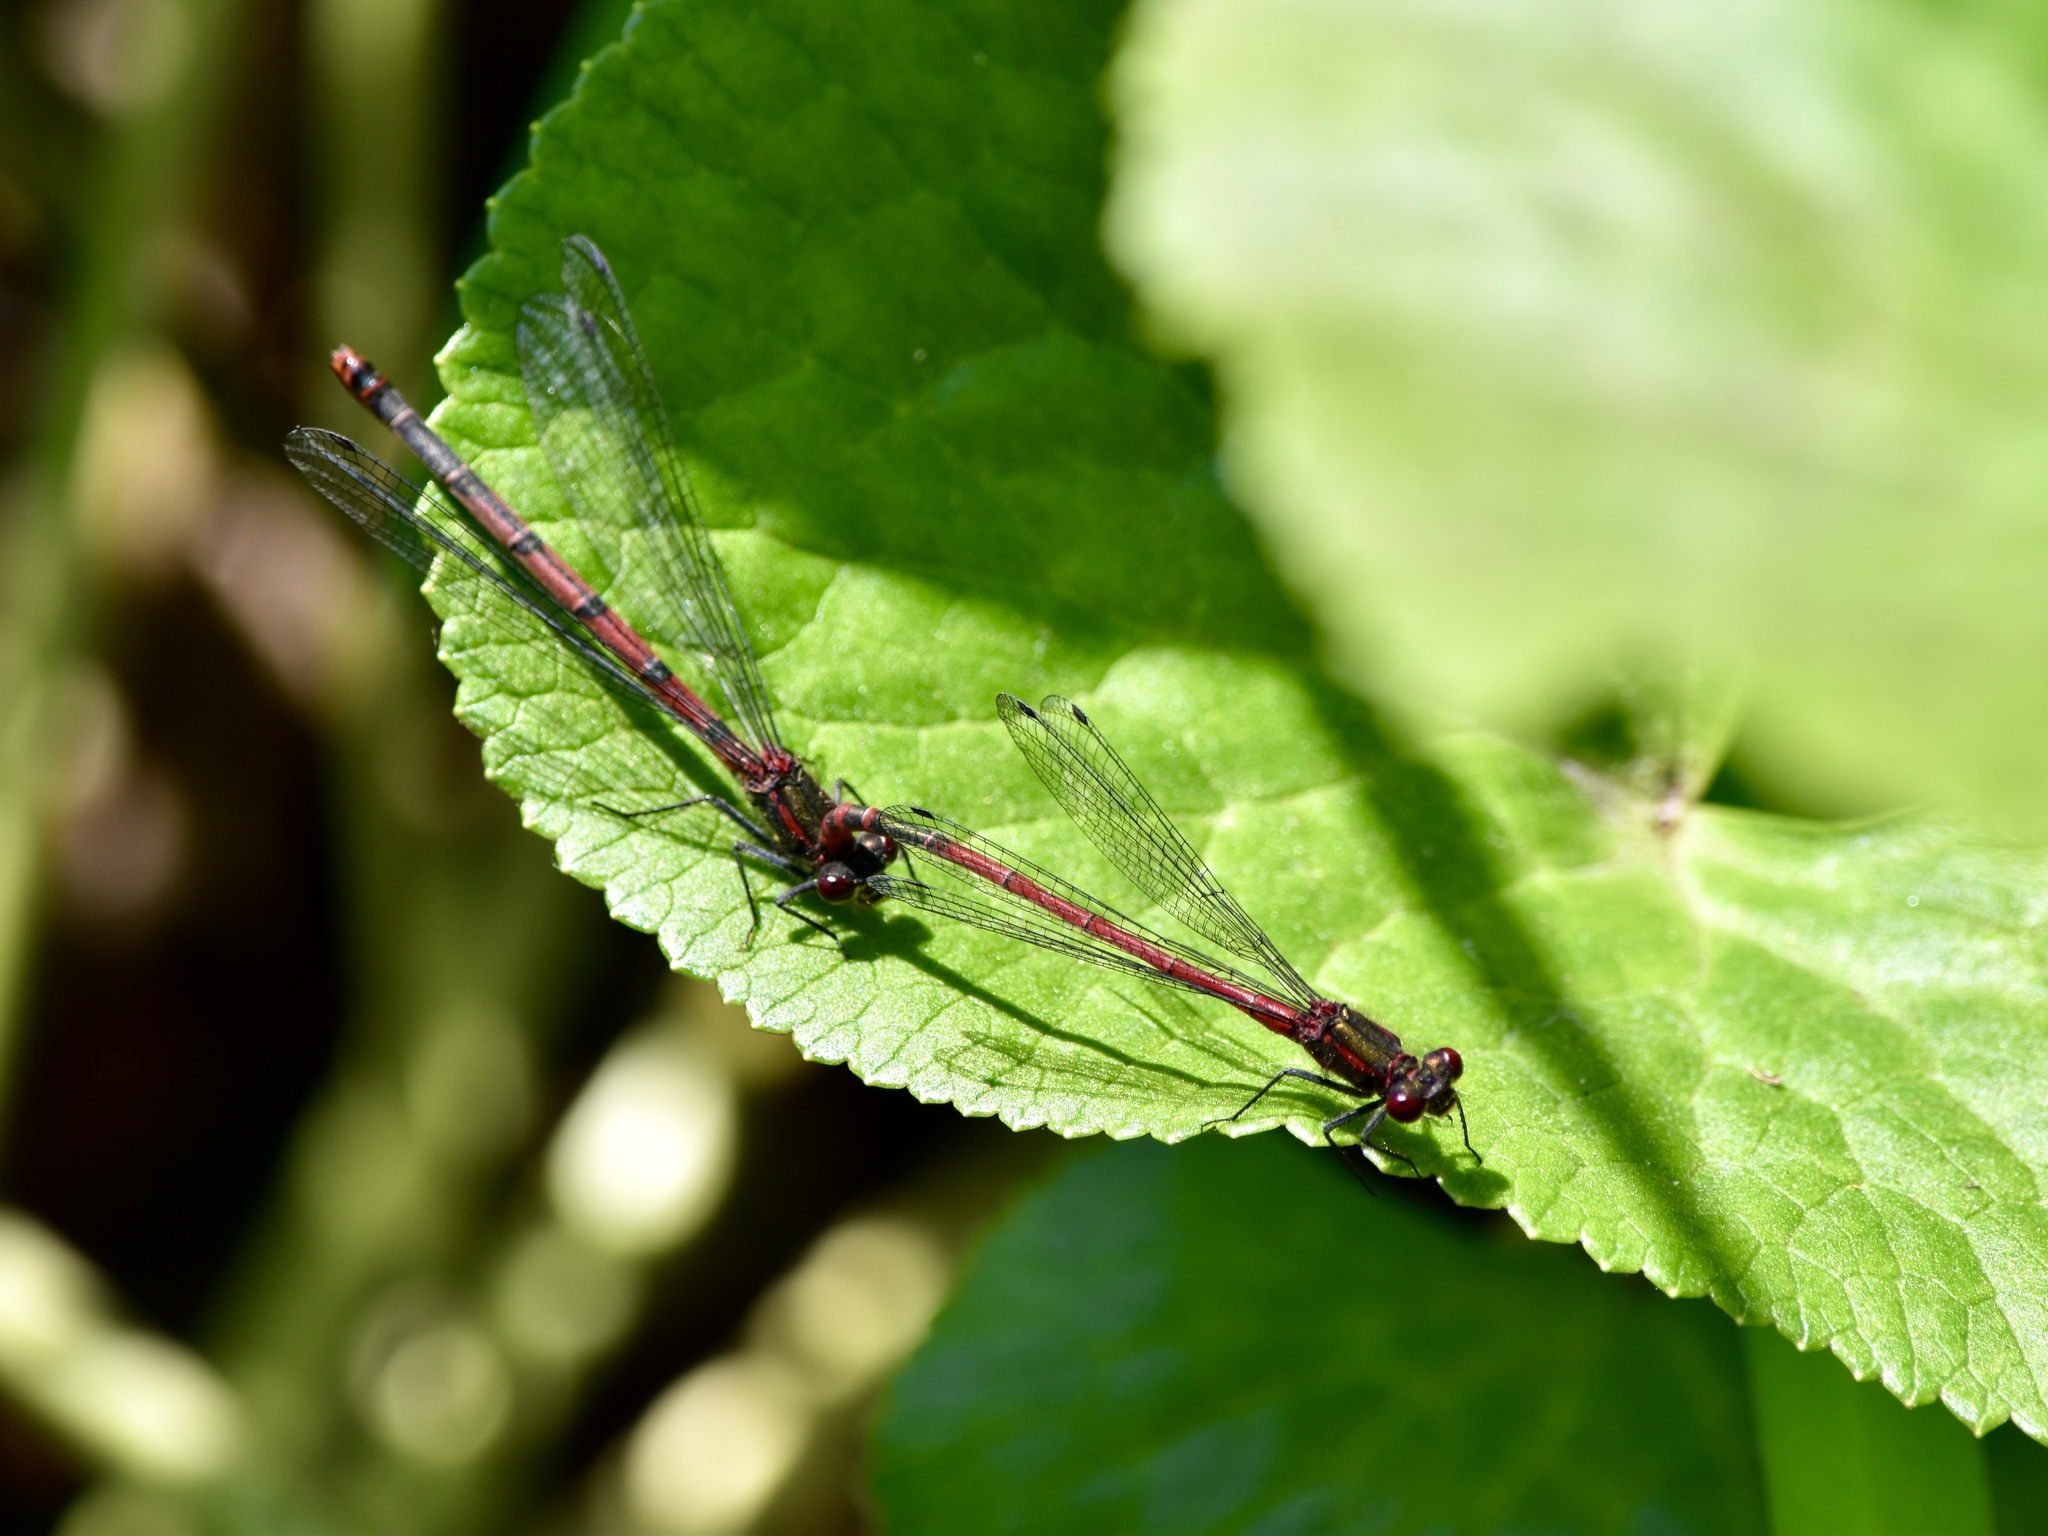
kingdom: Animalia
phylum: Arthropoda
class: Insecta
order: Odonata
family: Coenagrionidae
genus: Pyrrhosoma
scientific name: Pyrrhosoma nymphula
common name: Large red damsel
